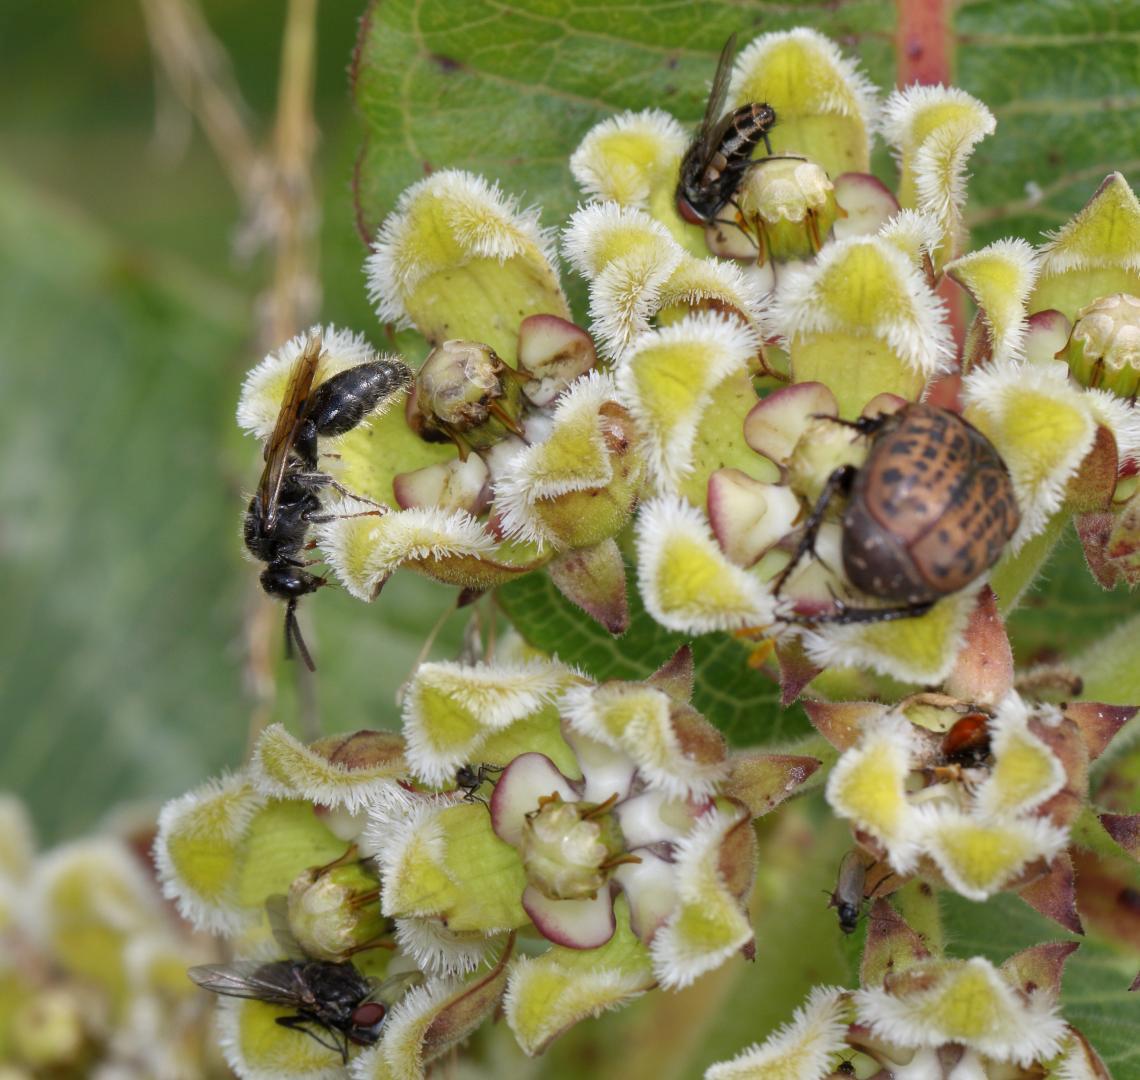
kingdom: Plantae
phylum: Tracheophyta
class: Magnoliopsida
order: Gentianales
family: Apocynaceae
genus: Xysmalobium
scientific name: Xysmalobium undulatum
